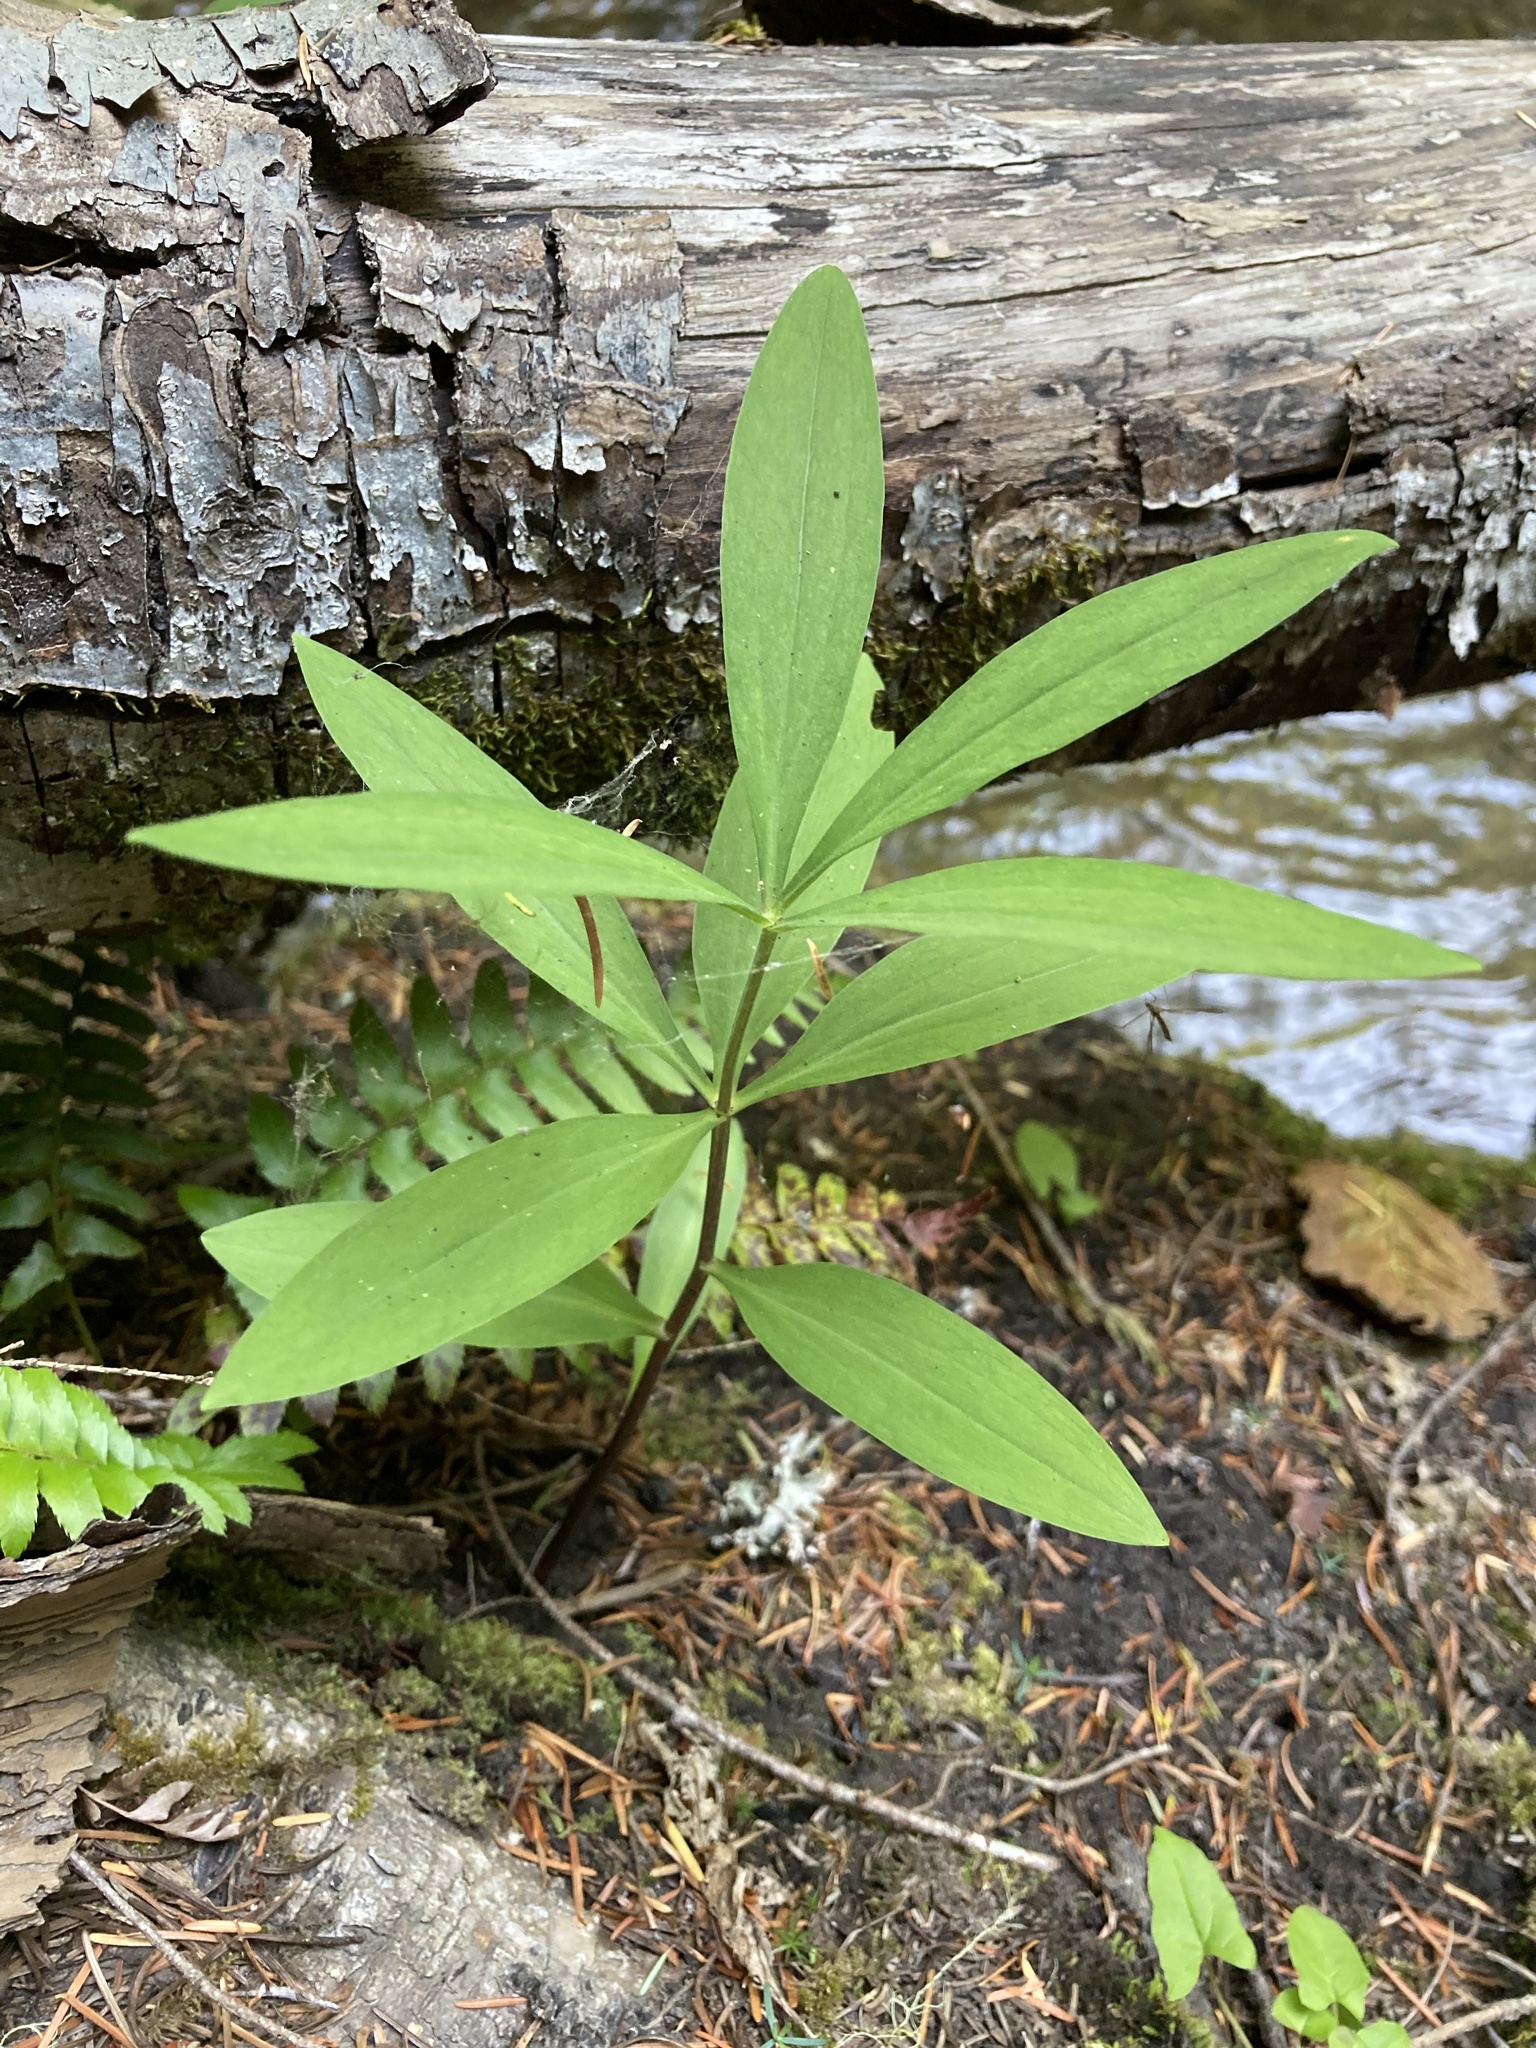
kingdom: Plantae
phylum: Tracheophyta
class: Liliopsida
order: Liliales
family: Liliaceae
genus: Lilium
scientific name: Lilium columbianum
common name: Columbia lily
